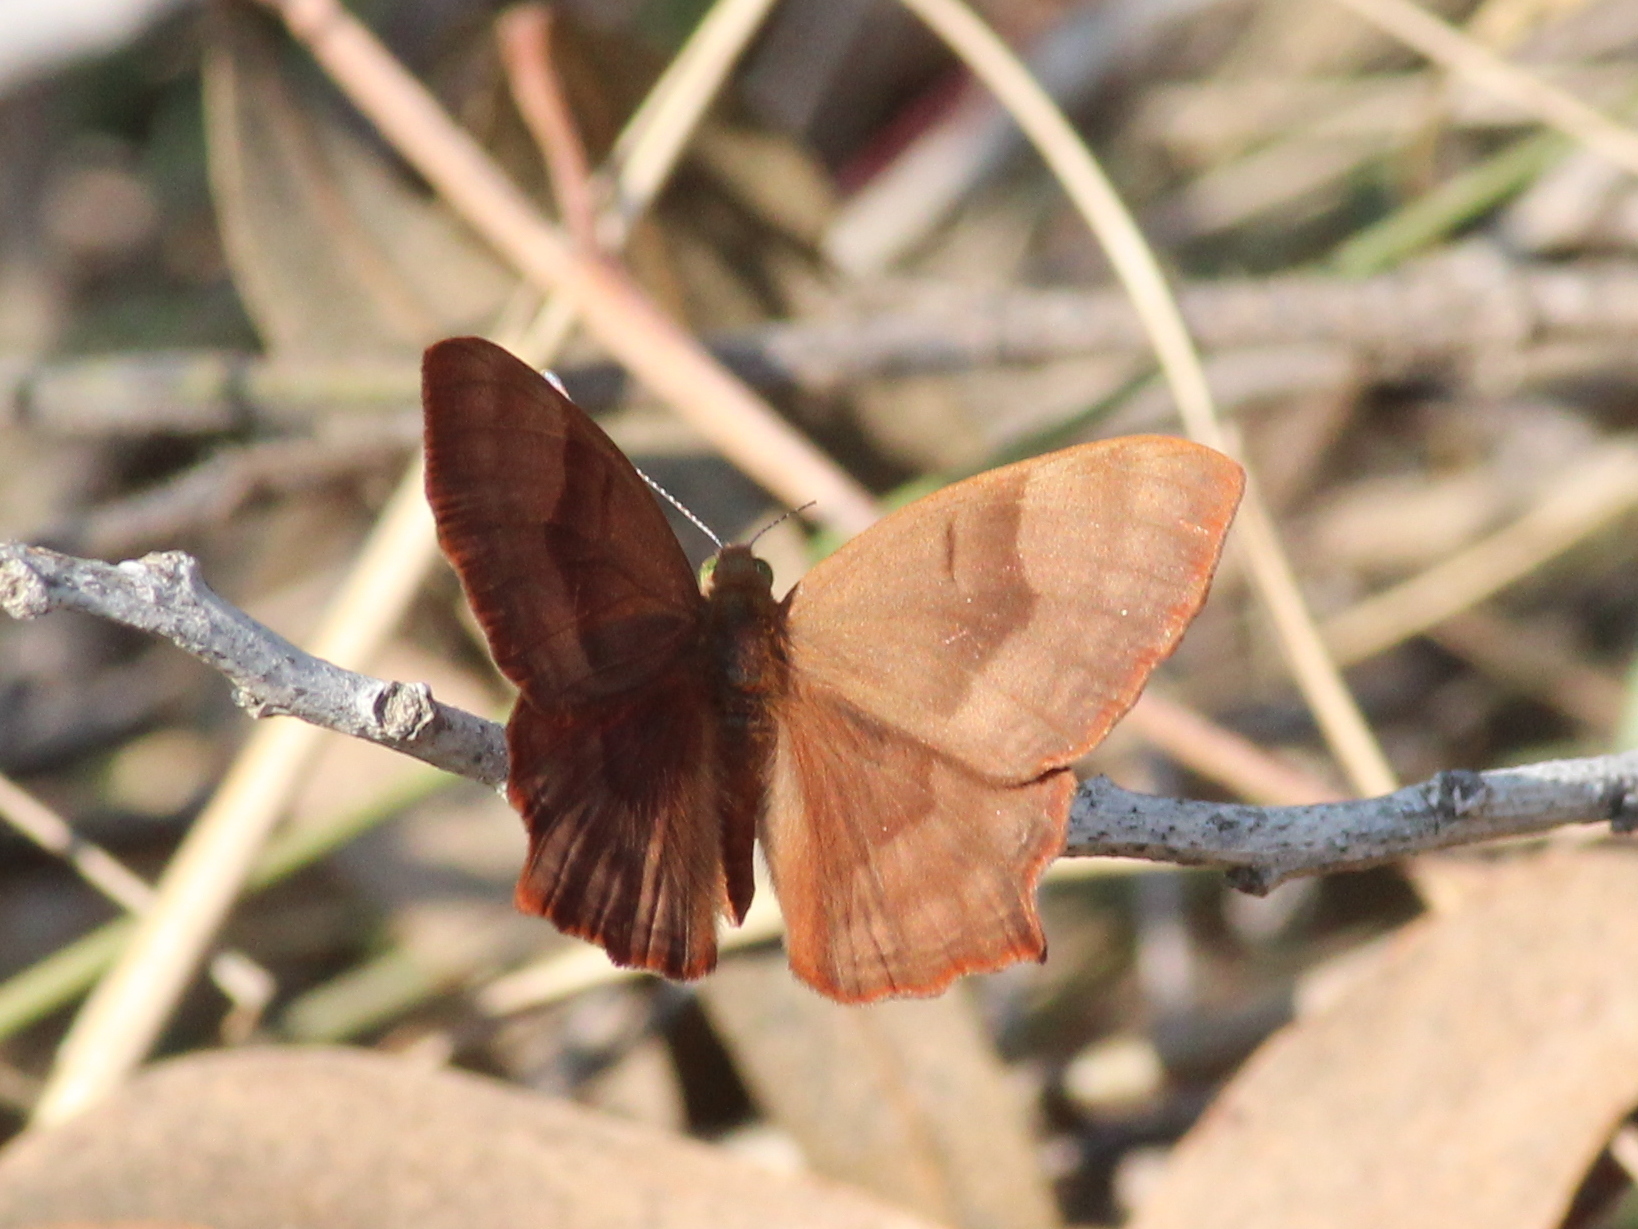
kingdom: Animalia
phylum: Arthropoda
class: Insecta
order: Lepidoptera
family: Lycaenidae
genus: Abisara
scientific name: Abisara bifasciata
